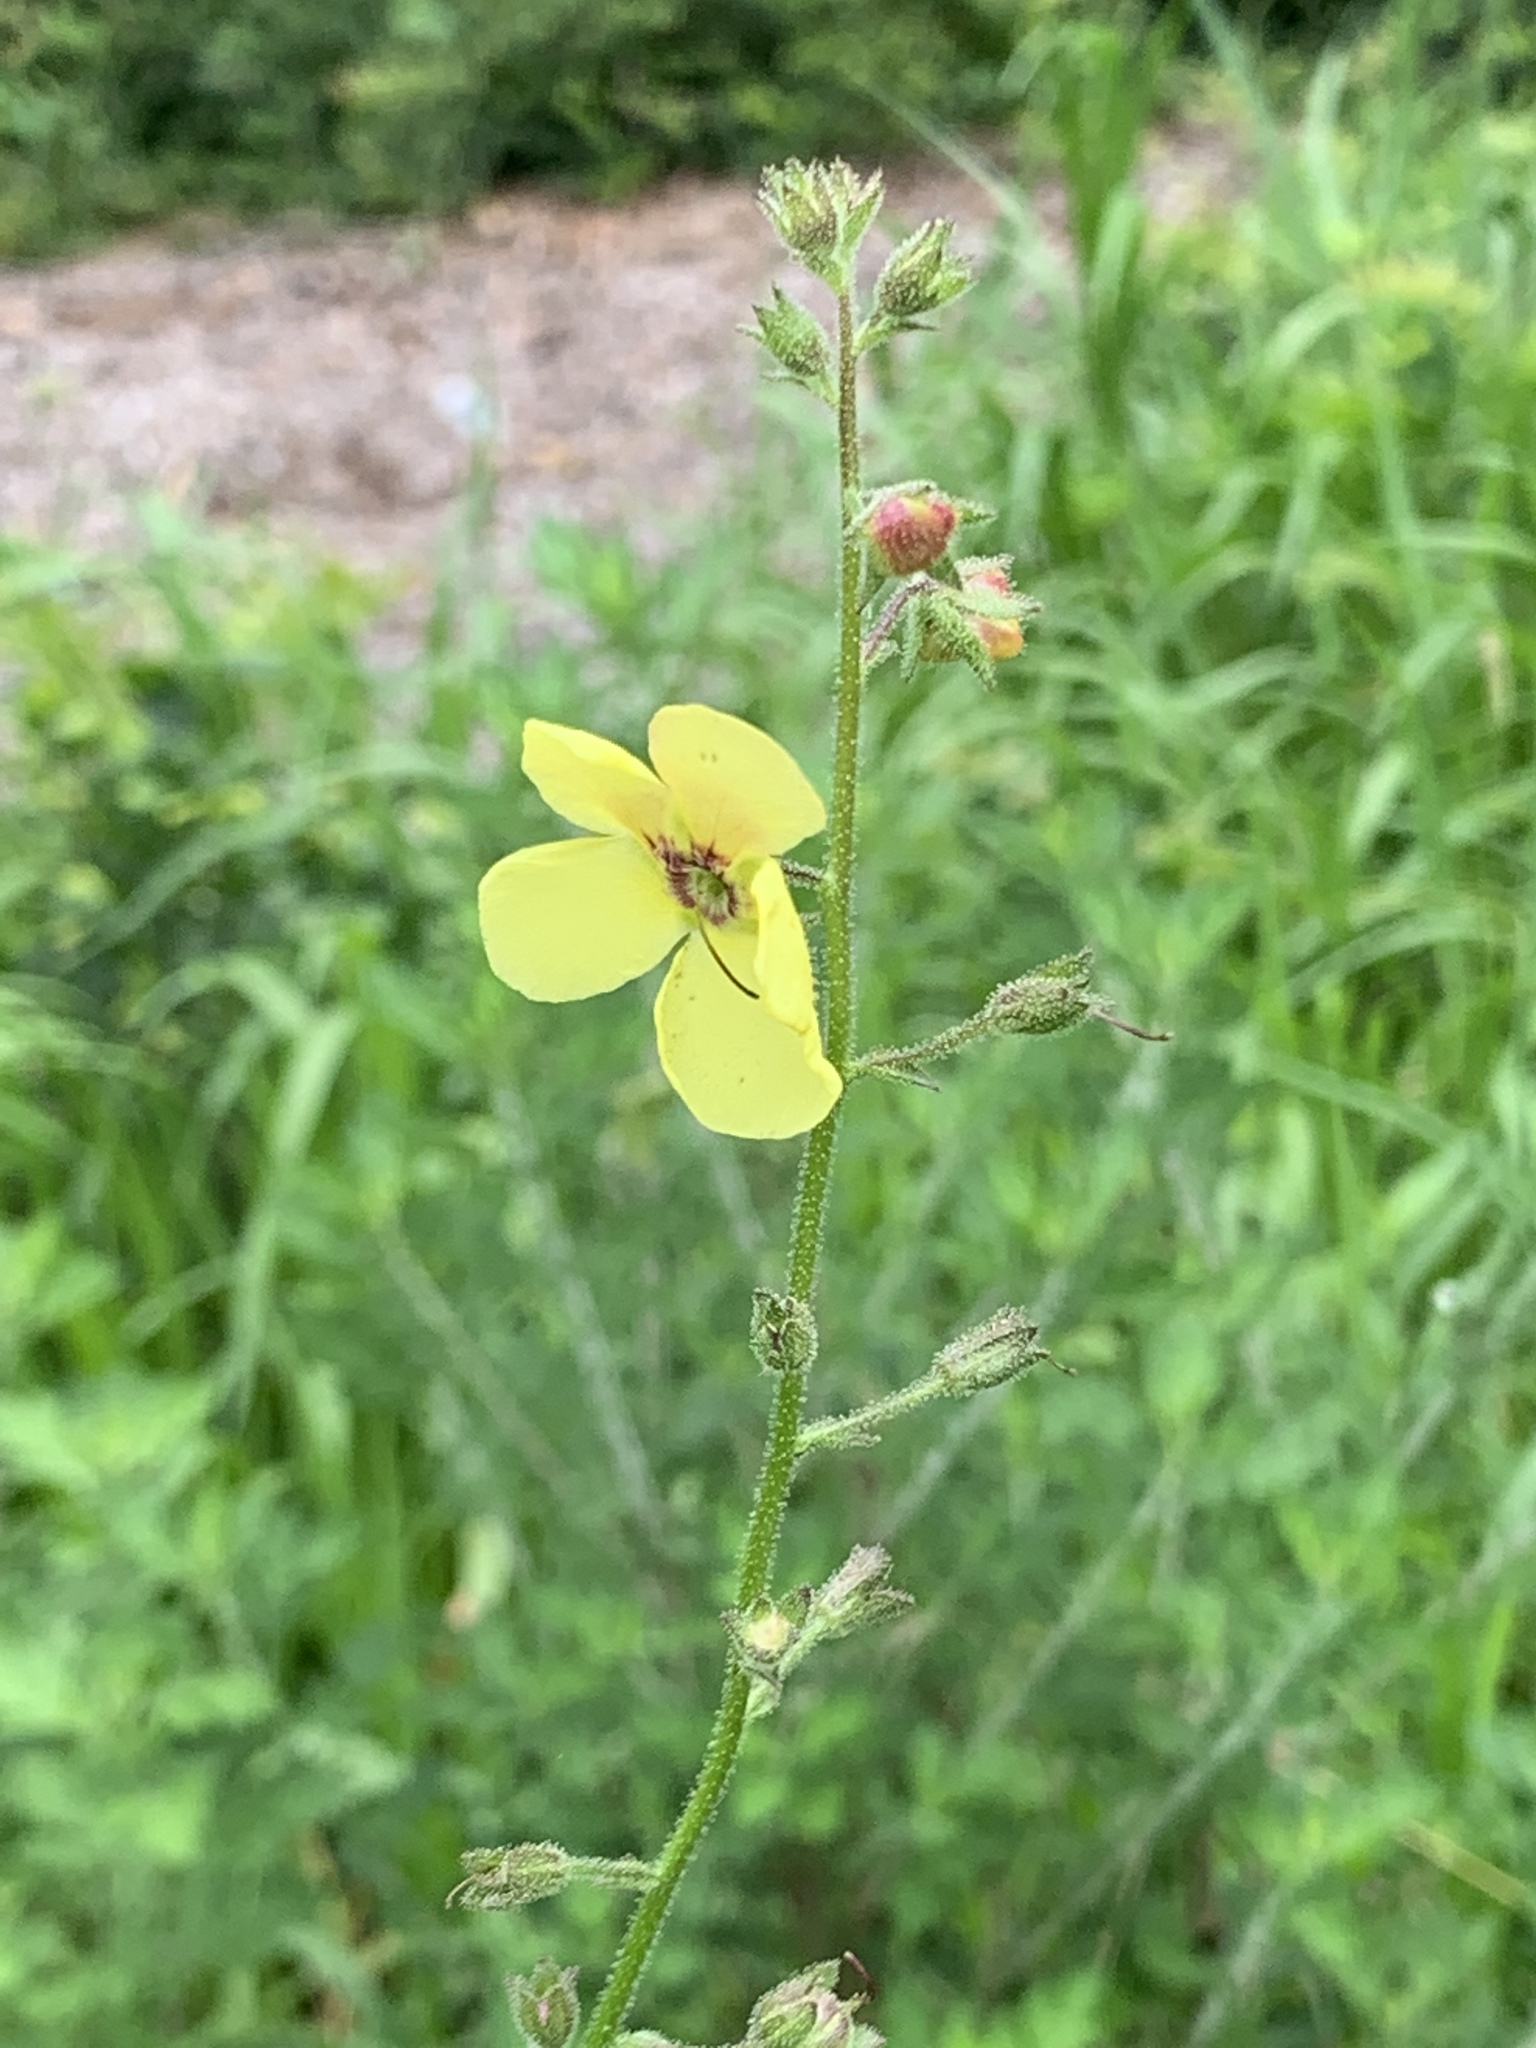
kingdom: Plantae
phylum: Tracheophyta
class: Magnoliopsida
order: Lamiales
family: Scrophulariaceae
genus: Verbascum
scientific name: Verbascum blattaria
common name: Moth mullein
